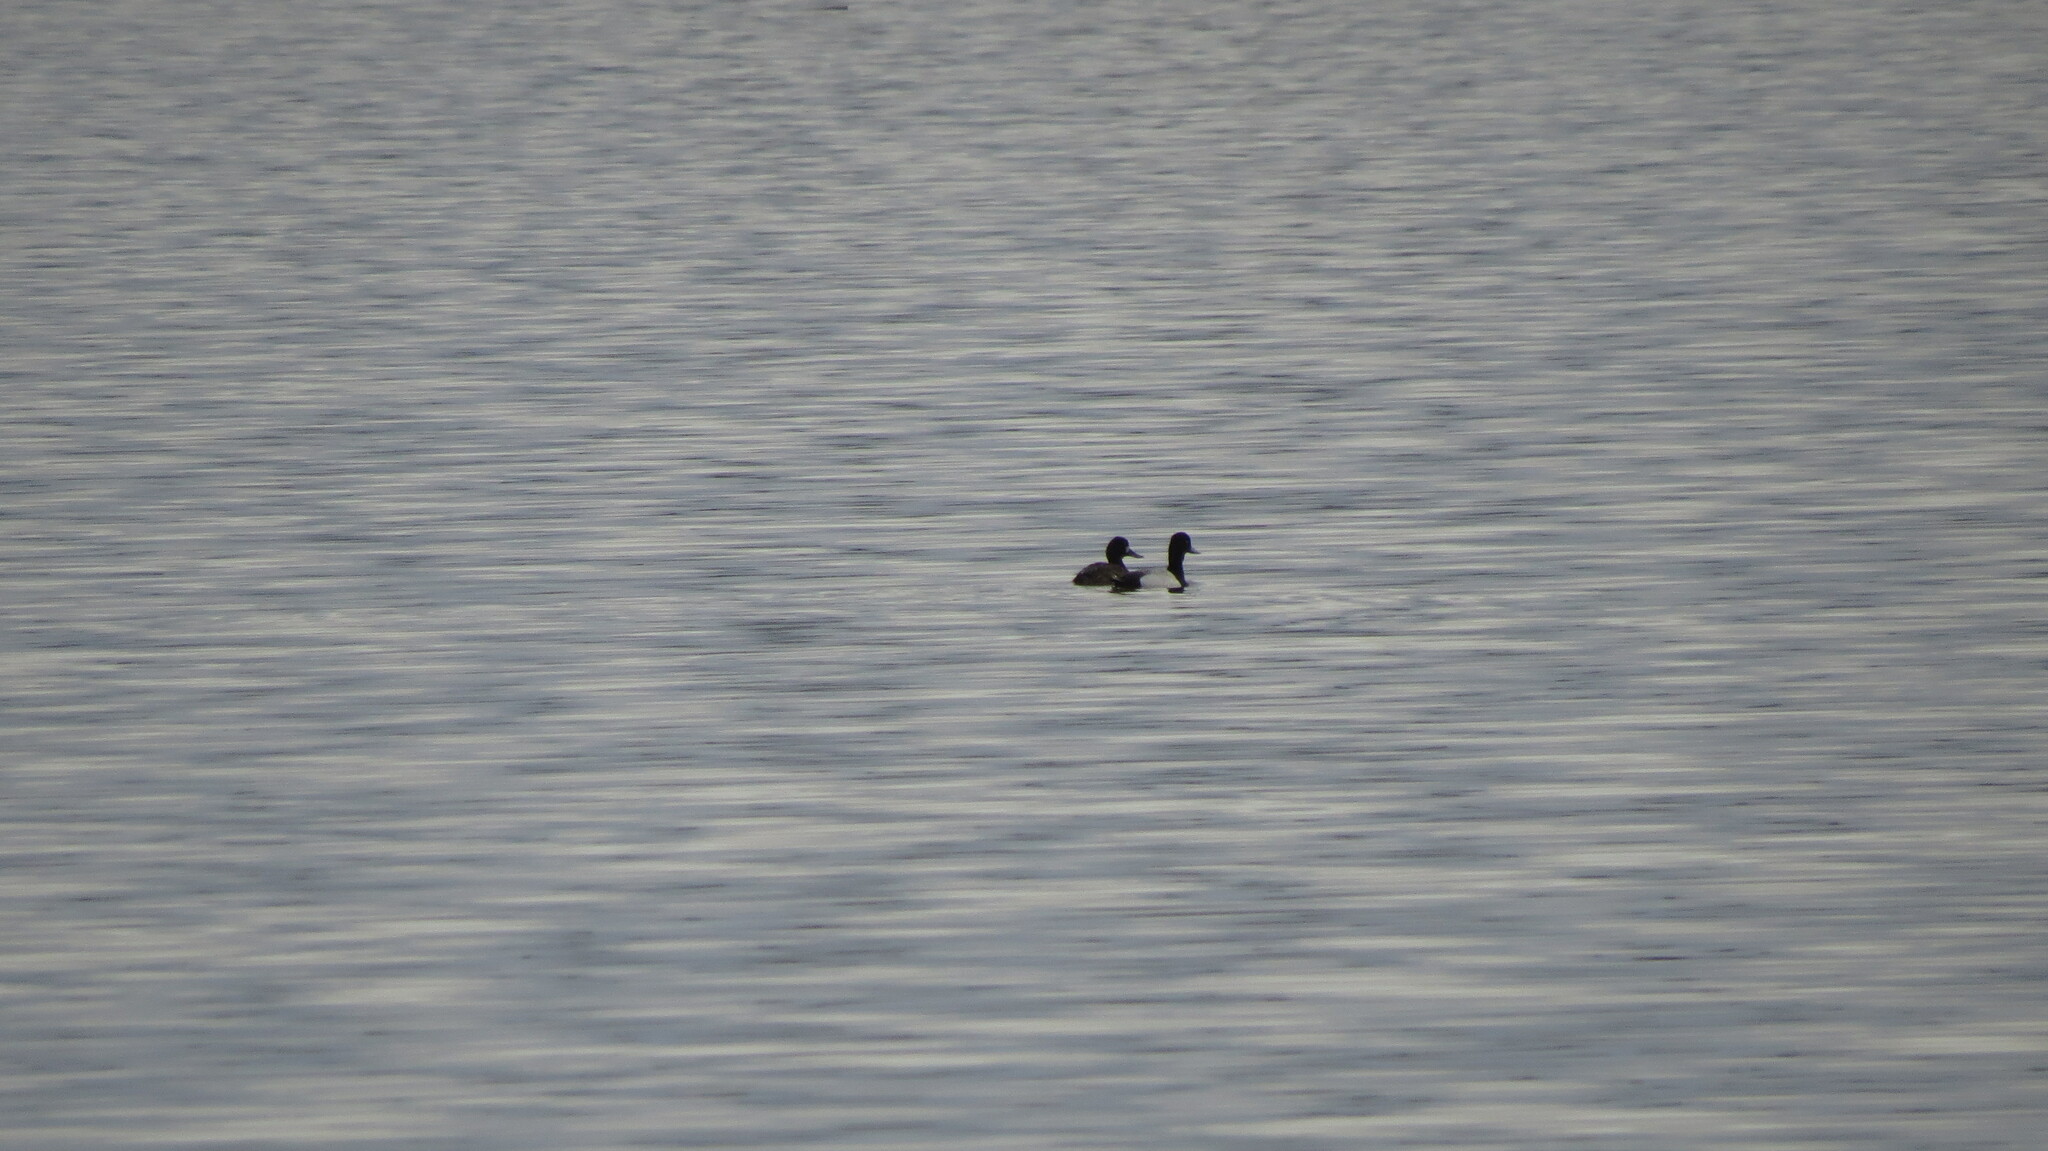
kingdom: Animalia
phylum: Chordata
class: Aves
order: Anseriformes
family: Anatidae
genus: Aythya
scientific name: Aythya affinis
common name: Lesser scaup
